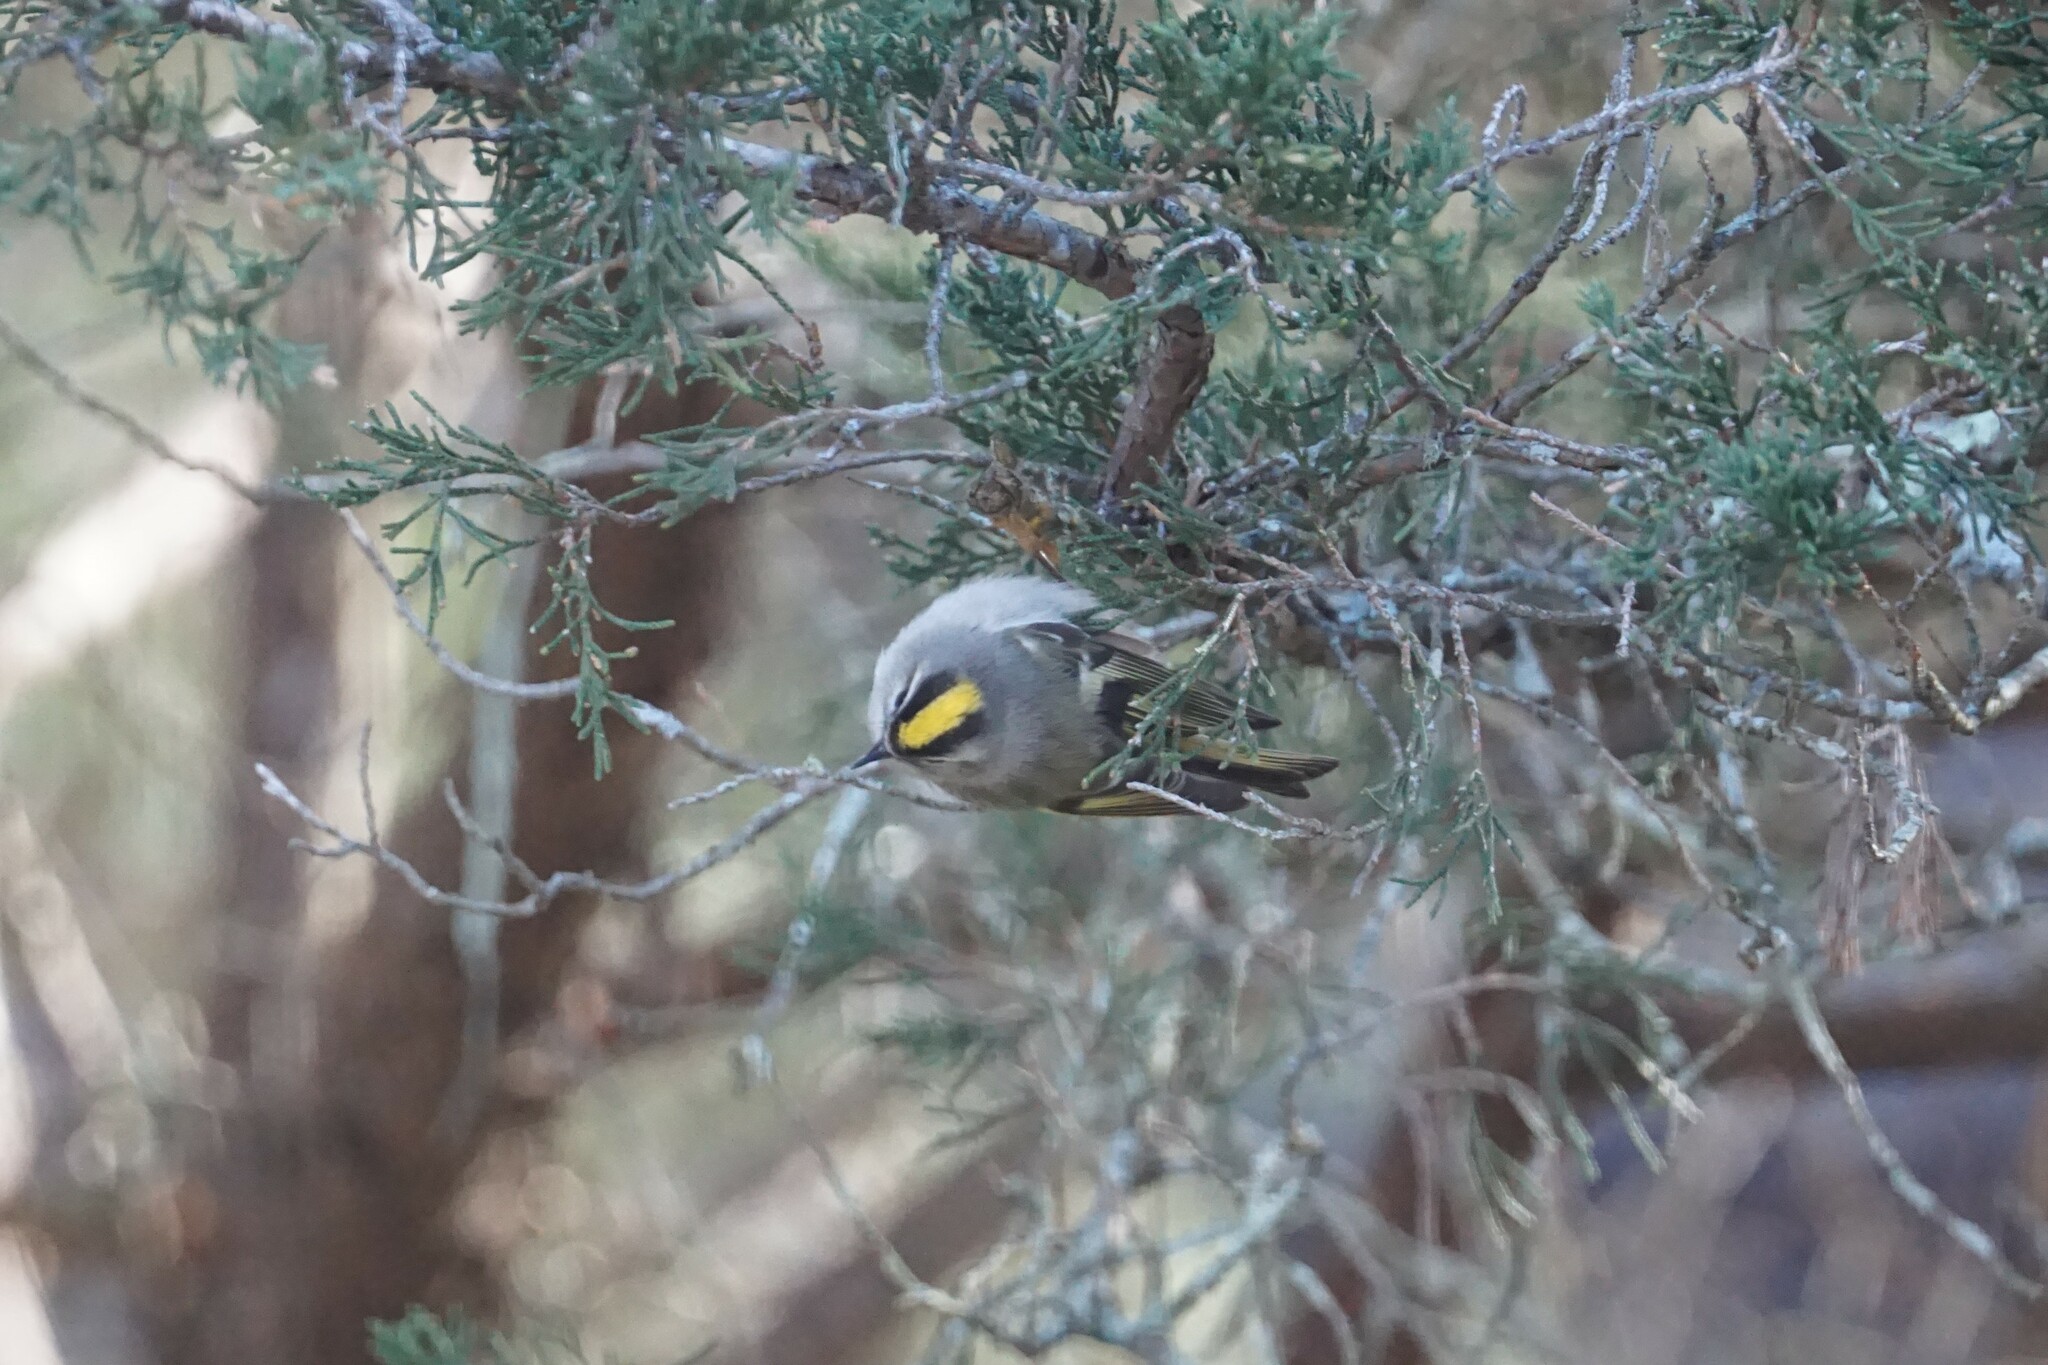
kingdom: Animalia
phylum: Chordata
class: Aves
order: Passeriformes
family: Regulidae
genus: Regulus
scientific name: Regulus satrapa
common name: Golden-crowned kinglet
